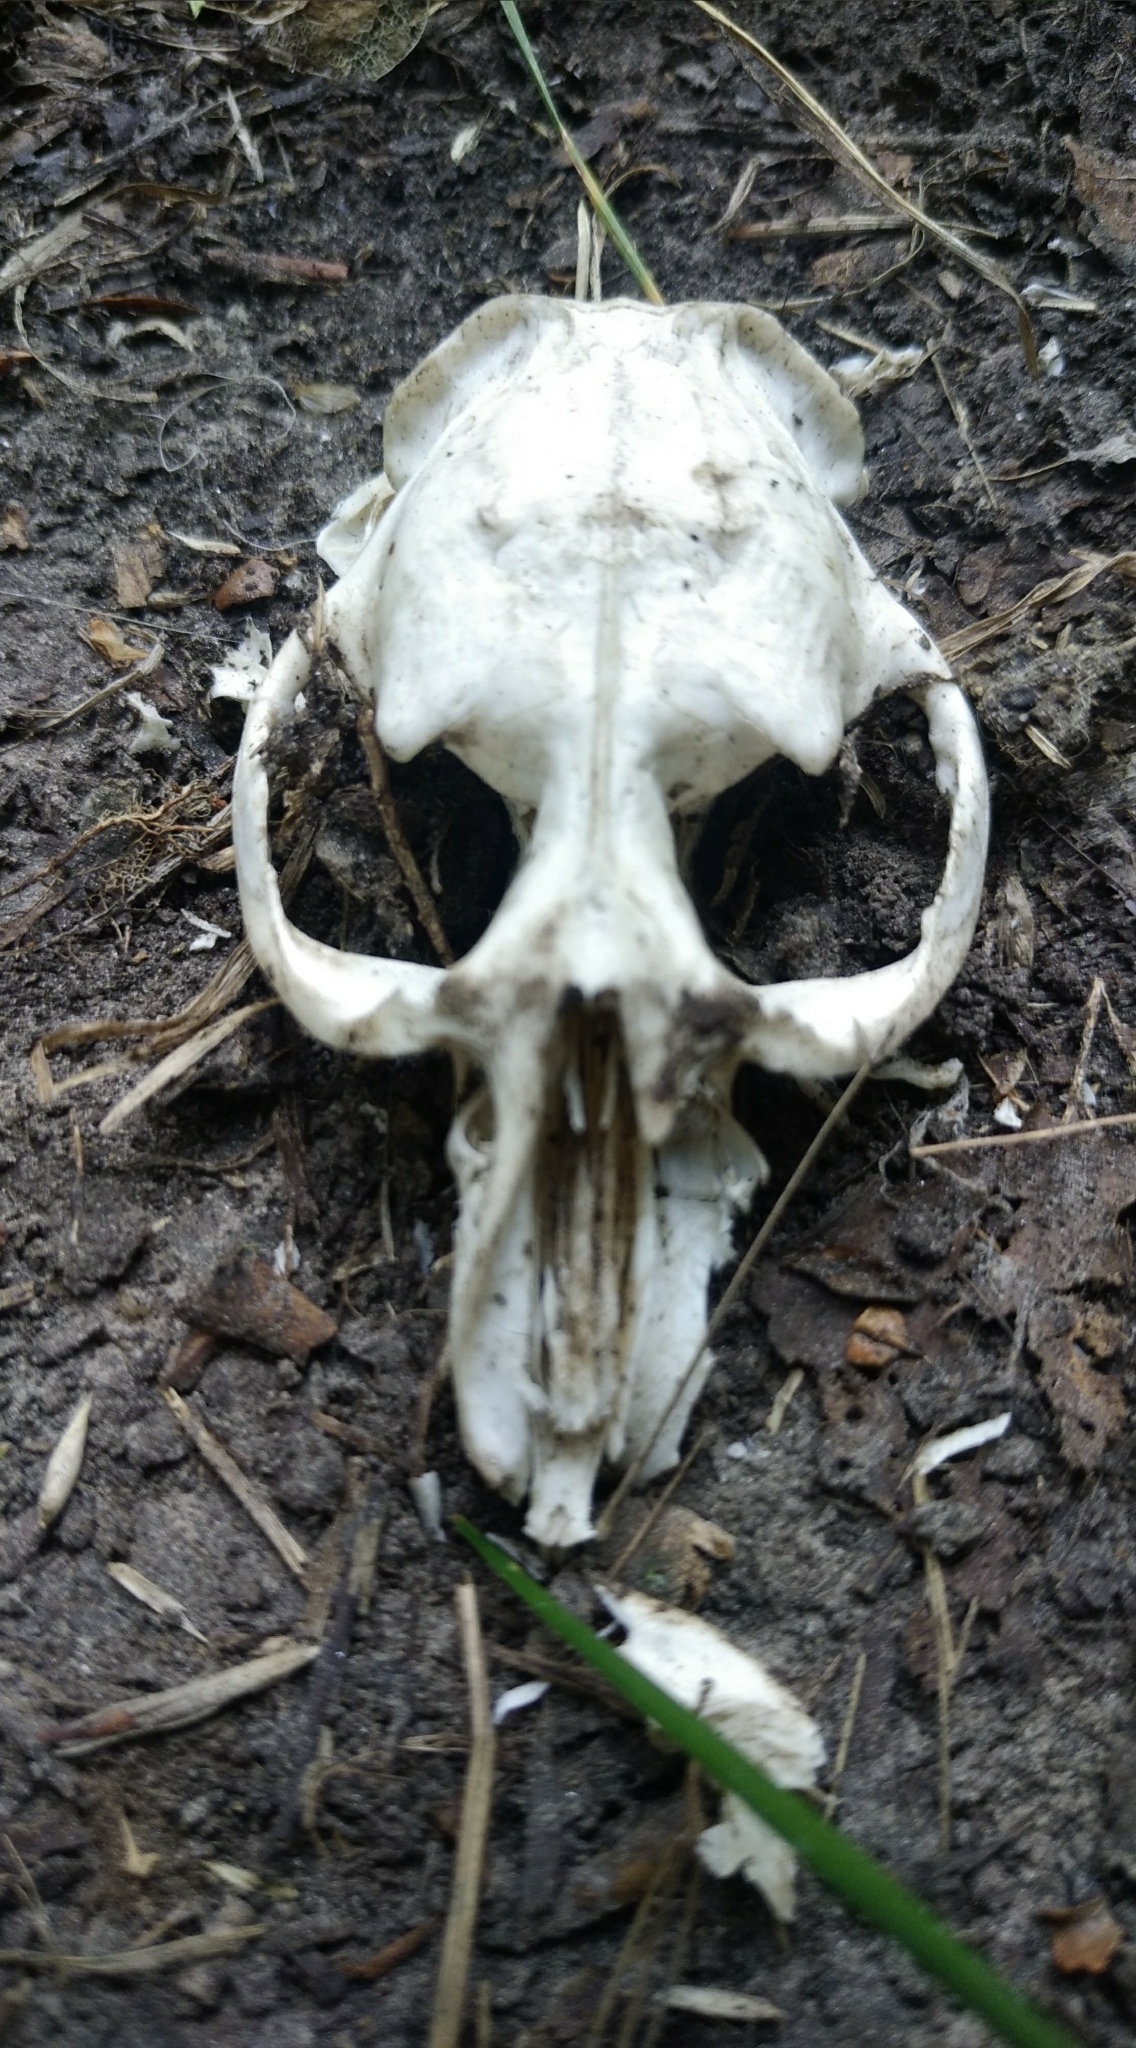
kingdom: Animalia
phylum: Chordata
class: Mammalia
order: Rodentia
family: Cricetidae
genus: Ondatra
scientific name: Ondatra zibethicus
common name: Muskrat
